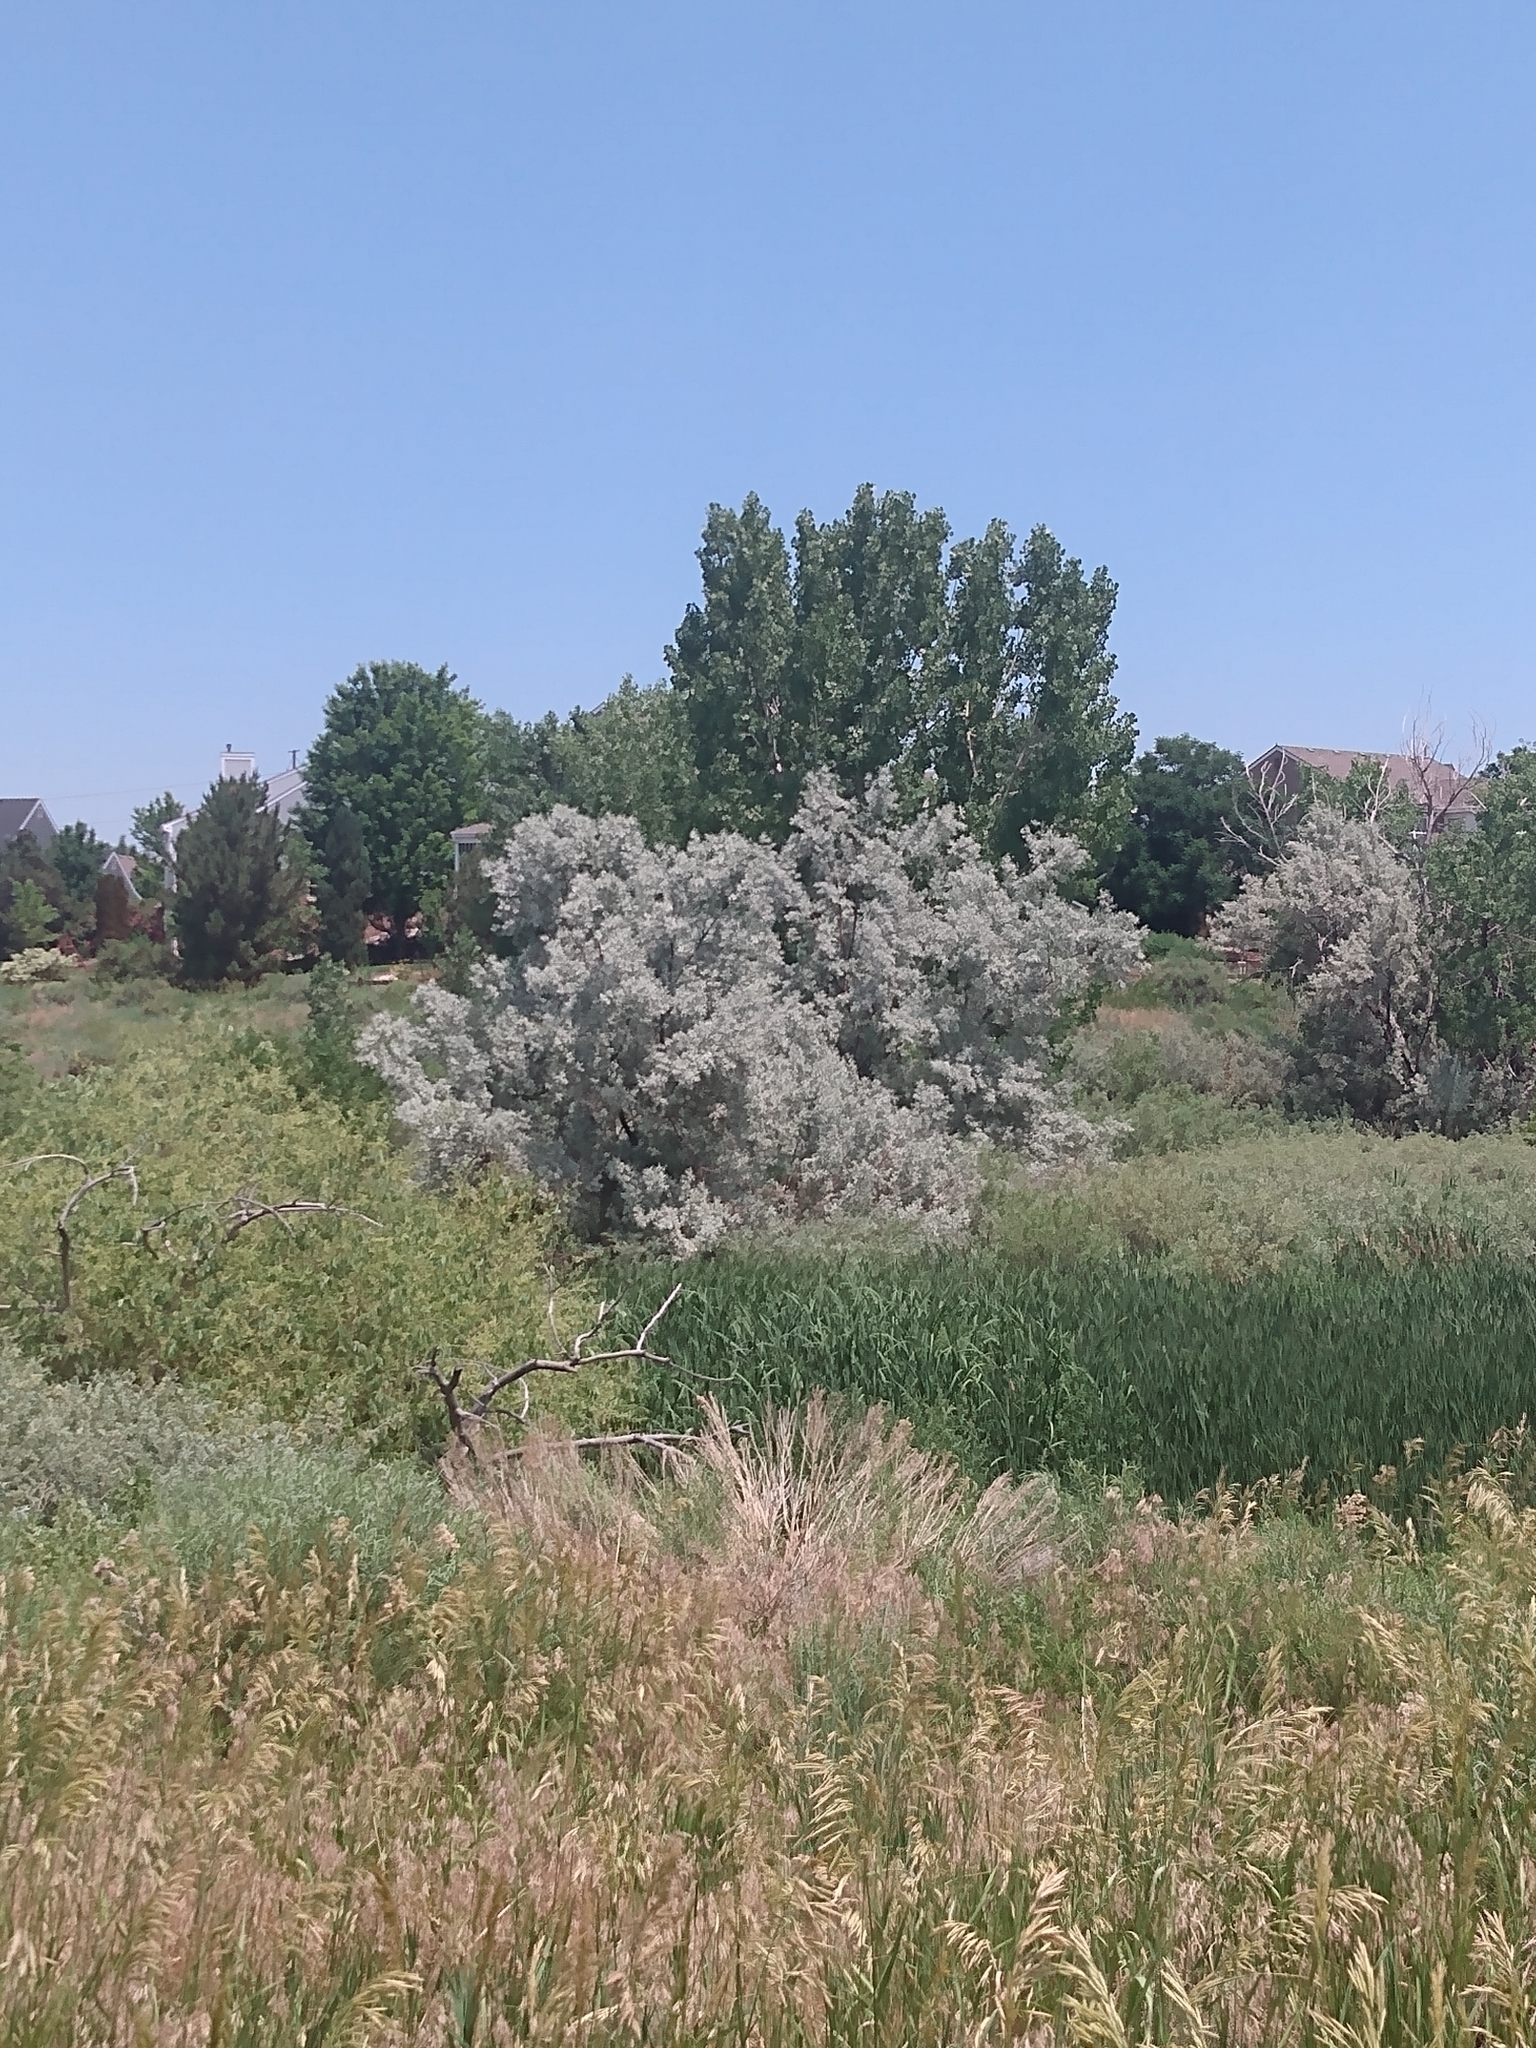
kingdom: Plantae
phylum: Tracheophyta
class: Magnoliopsida
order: Rosales
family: Elaeagnaceae
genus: Elaeagnus
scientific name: Elaeagnus angustifolia
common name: Russian olive
